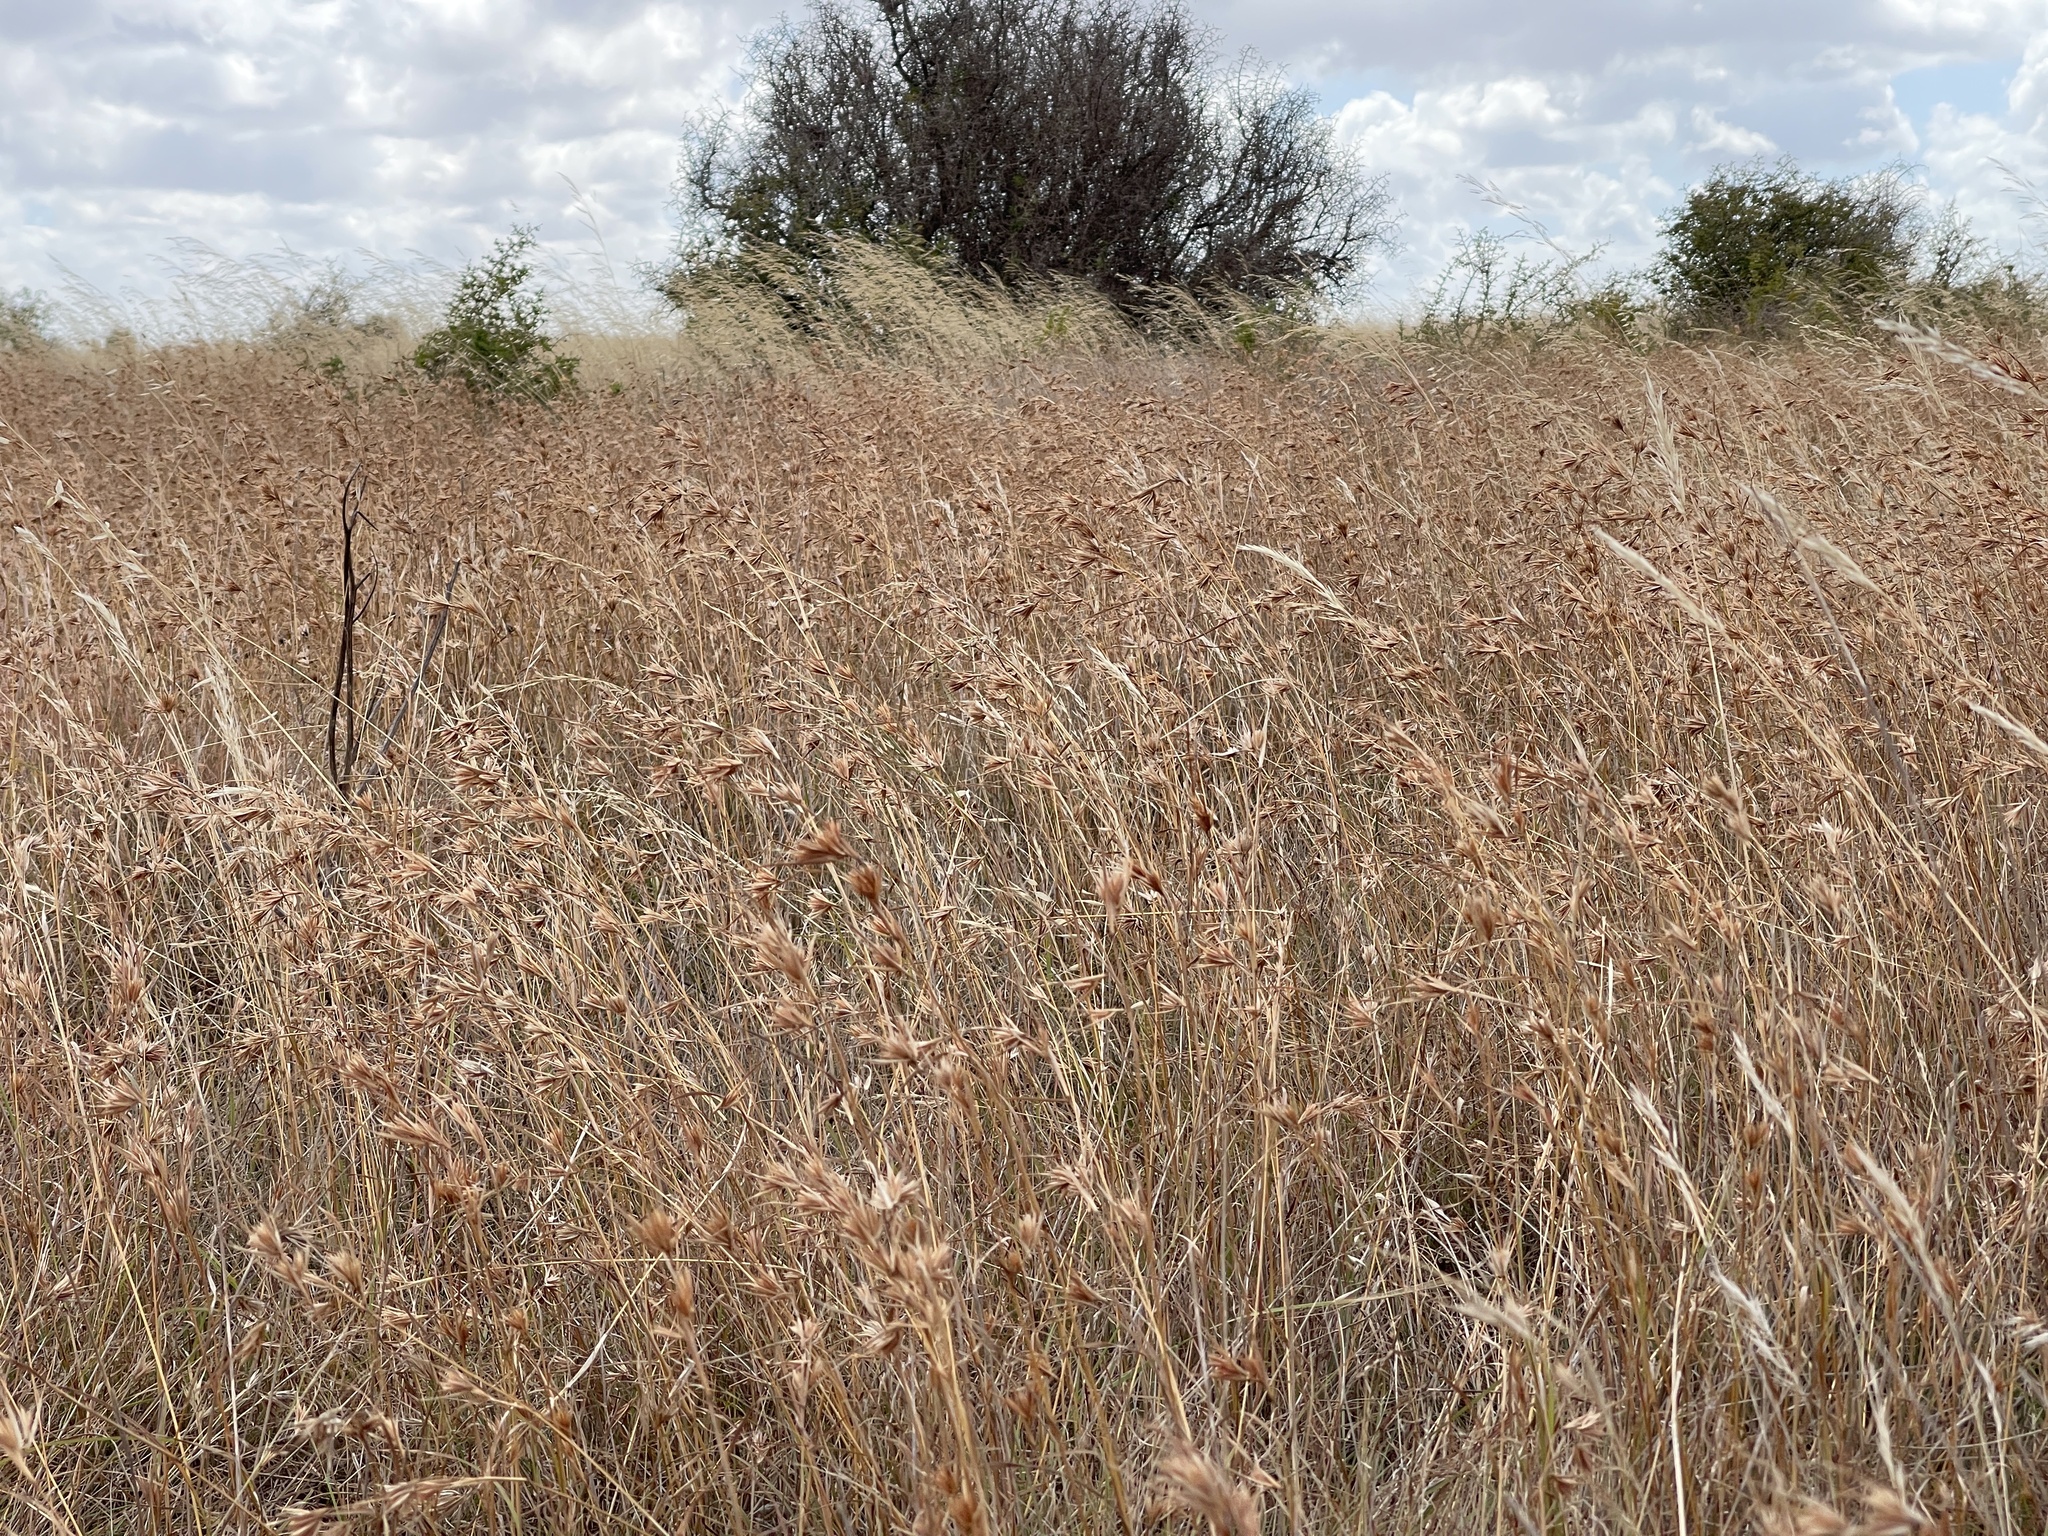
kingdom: Plantae
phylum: Tracheophyta
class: Liliopsida
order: Poales
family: Poaceae
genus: Themeda
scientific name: Themeda triandra
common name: Kangaroo grass
